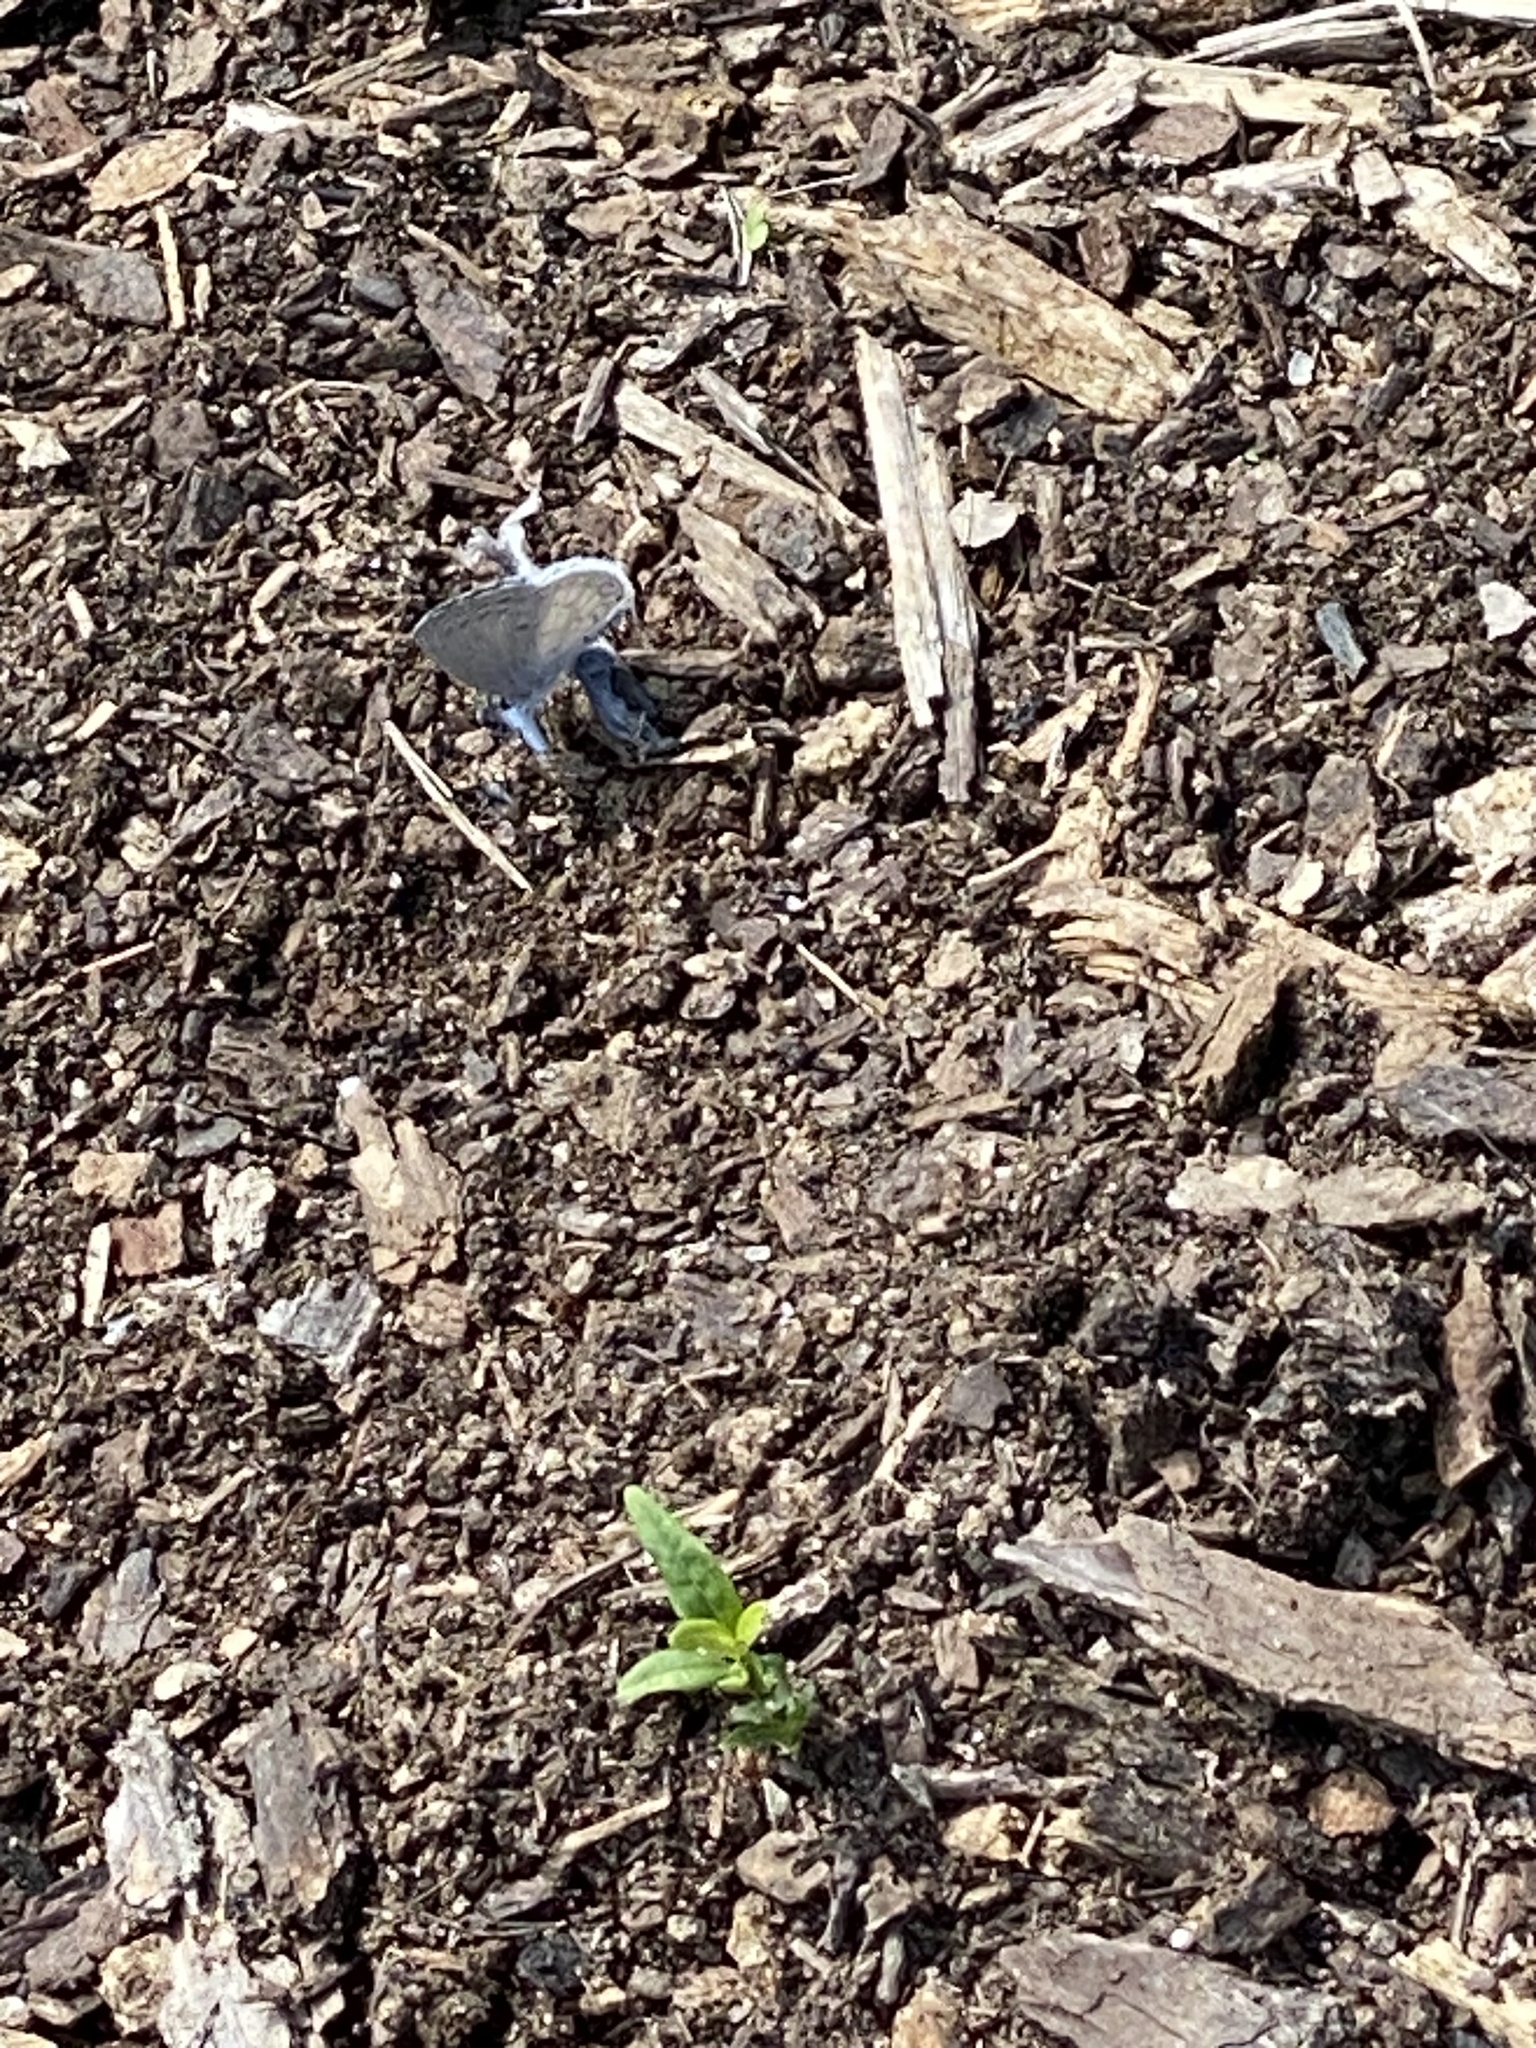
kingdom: Animalia
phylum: Arthropoda
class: Insecta
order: Lepidoptera
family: Lycaenidae
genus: Cyaniris
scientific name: Cyaniris neglecta
